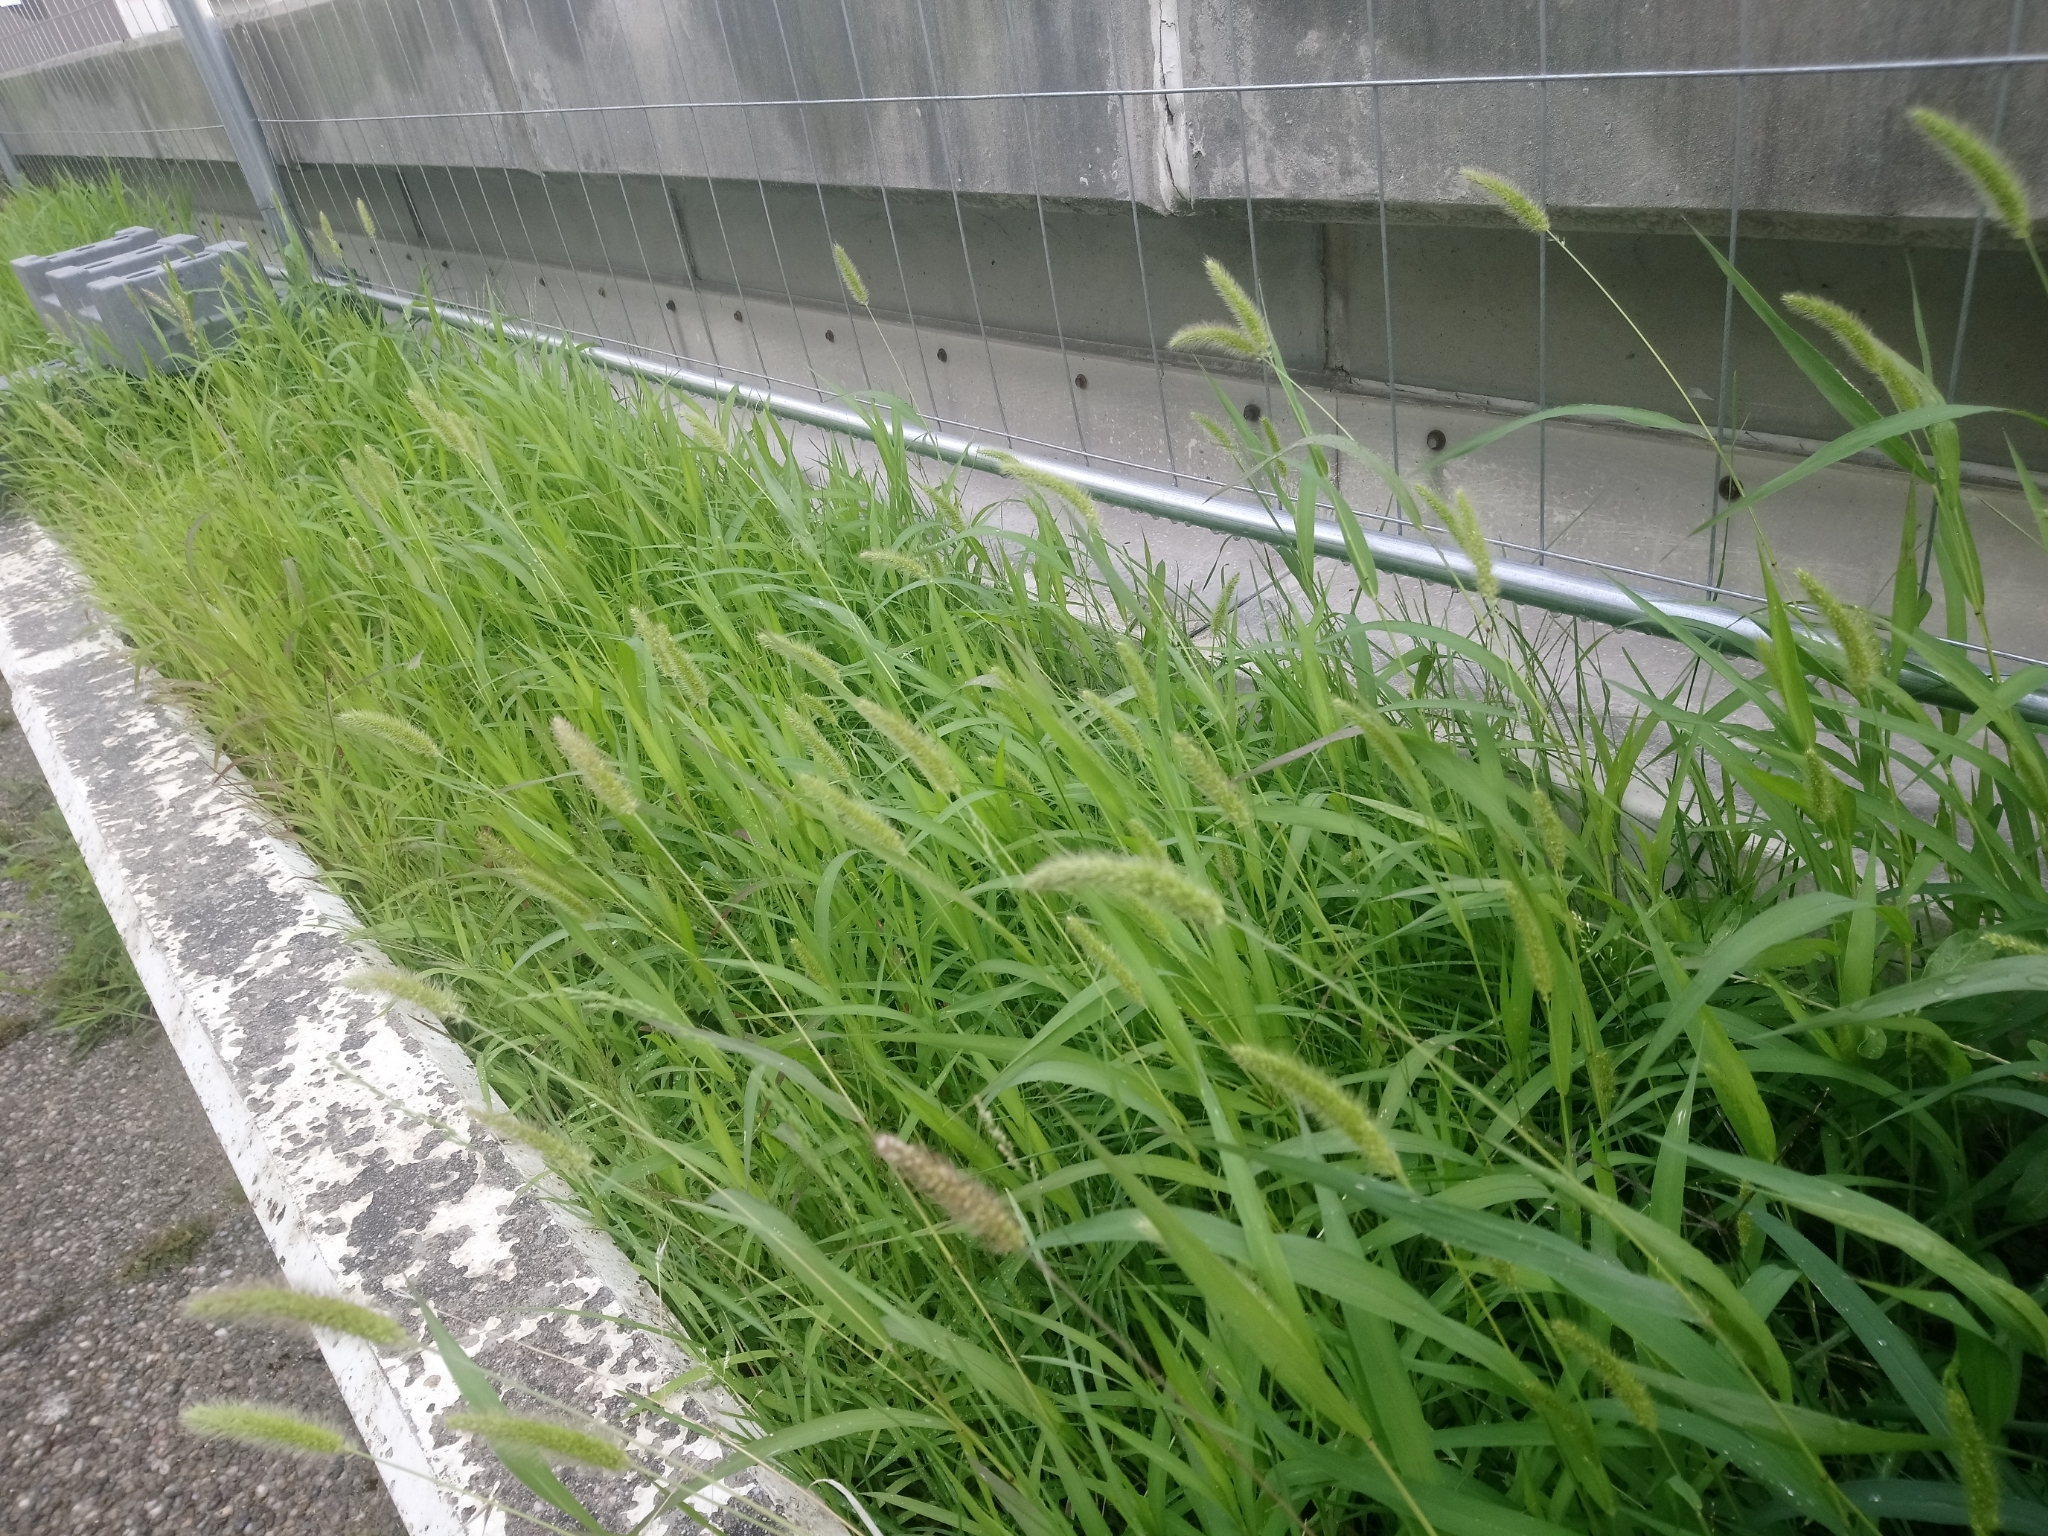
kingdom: Plantae
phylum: Tracheophyta
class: Liliopsida
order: Poales
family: Poaceae
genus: Setaria
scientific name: Setaria viridis
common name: Green bristlegrass
